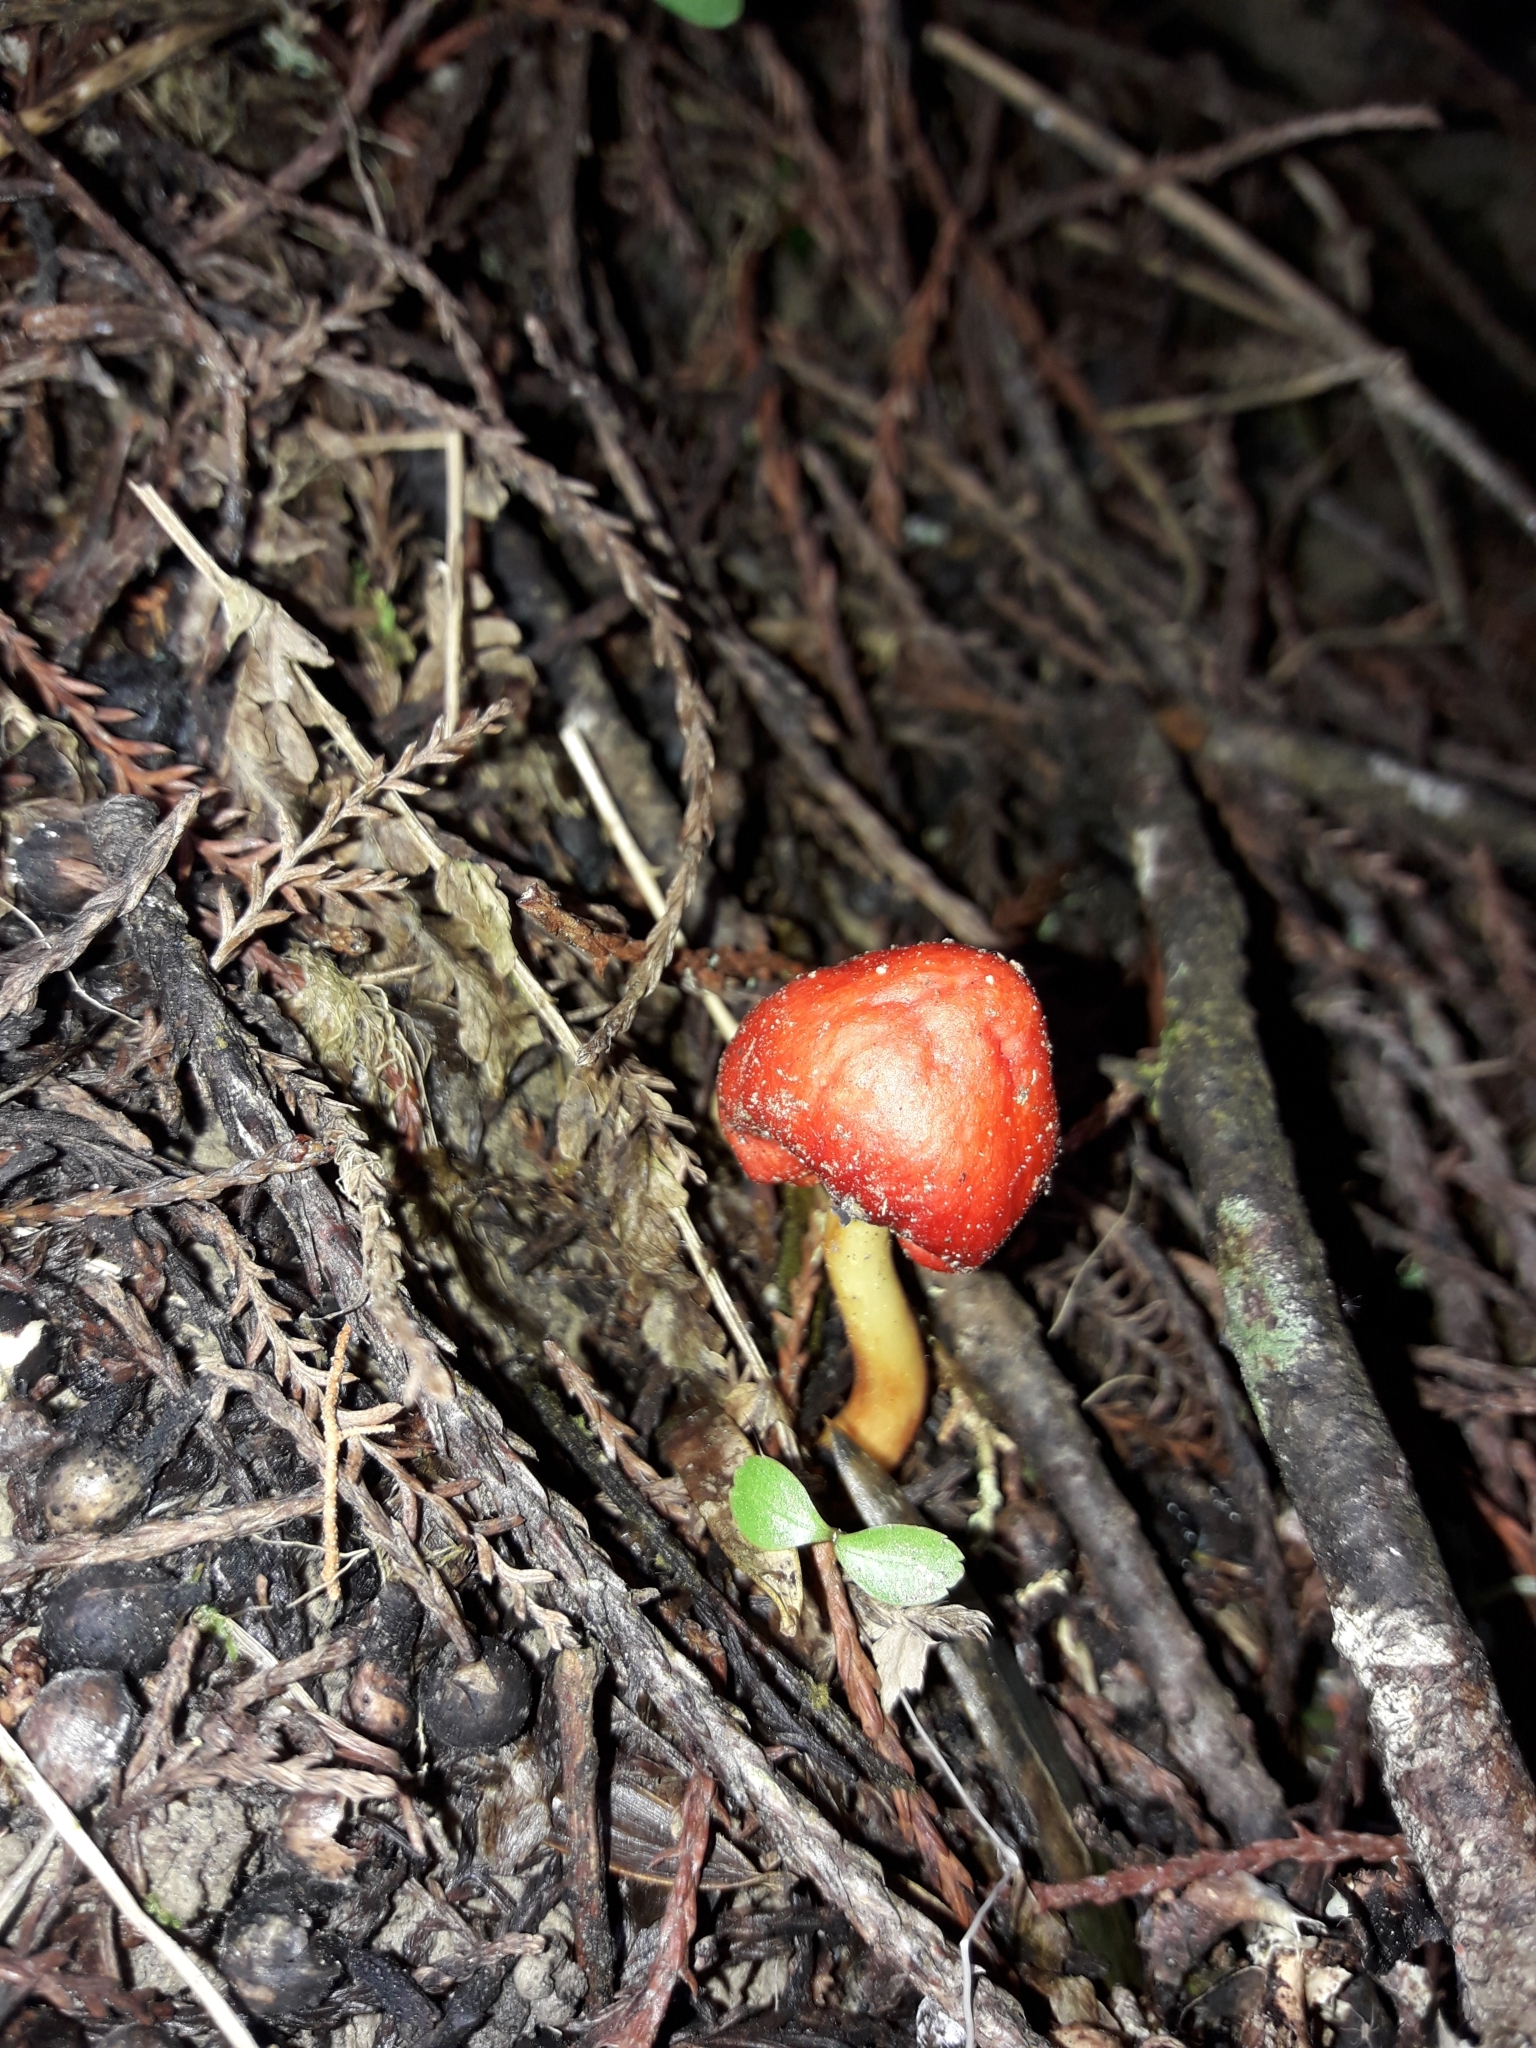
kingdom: Fungi
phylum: Basidiomycota
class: Agaricomycetes
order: Agaricales
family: Strophariaceae
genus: Leratiomyces
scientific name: Leratiomyces erythrocephalus
